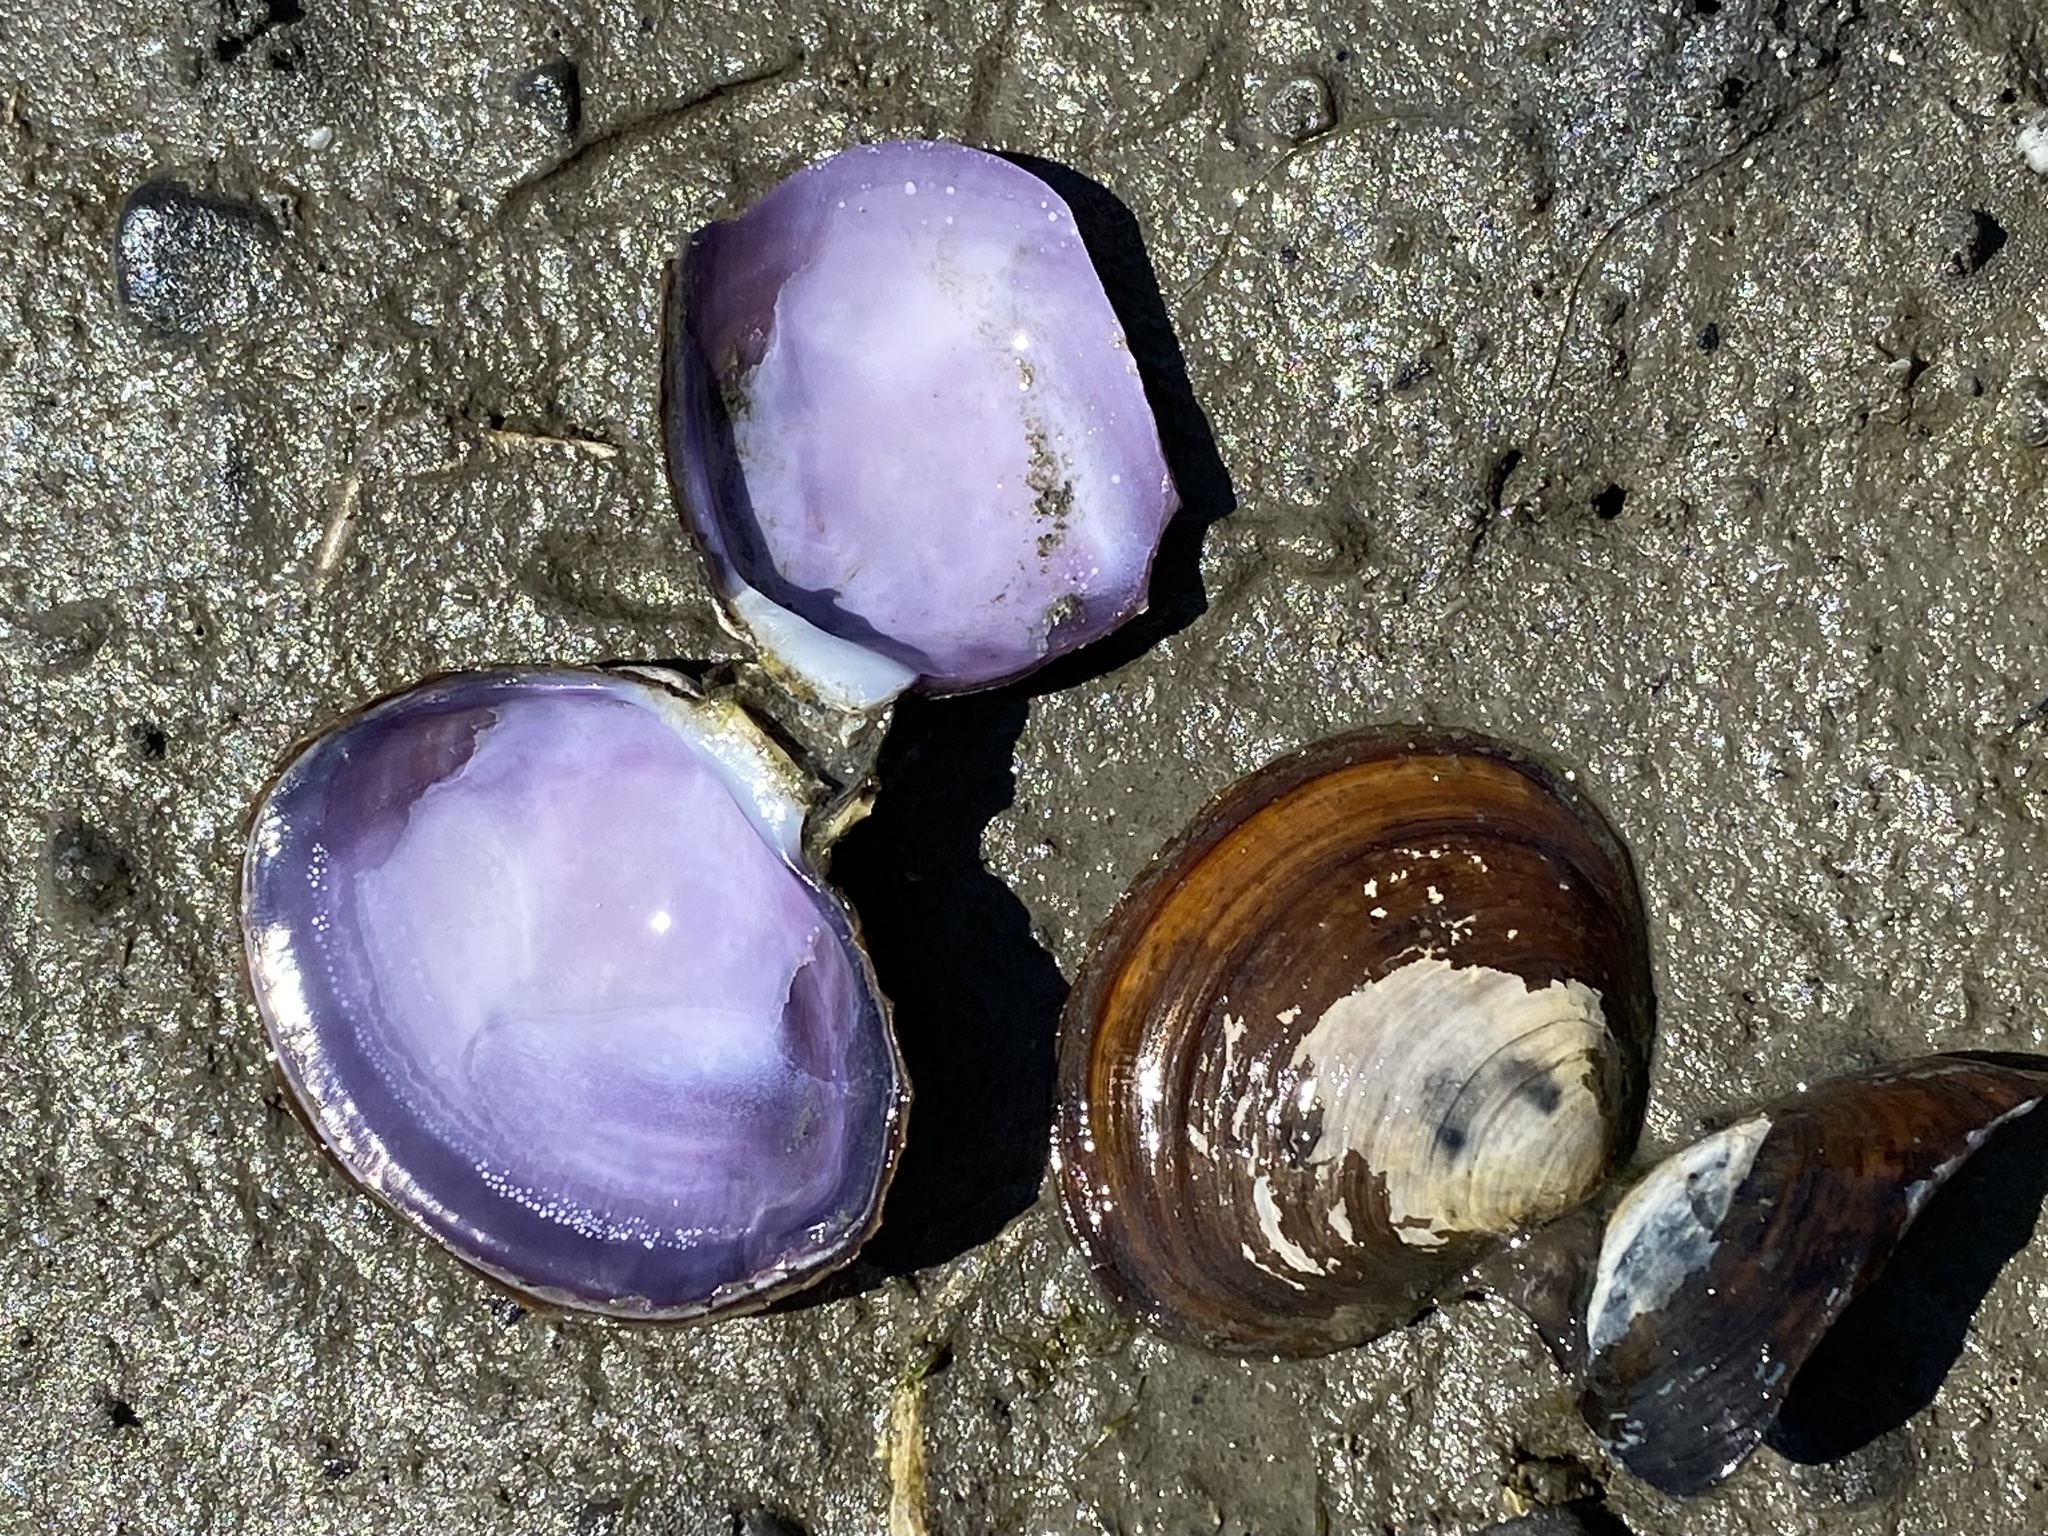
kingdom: Animalia
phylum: Mollusca
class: Bivalvia
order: Cardiida
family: Psammobiidae
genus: Nuttallia
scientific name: Nuttallia obscurata
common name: Purple mahogany-clam
